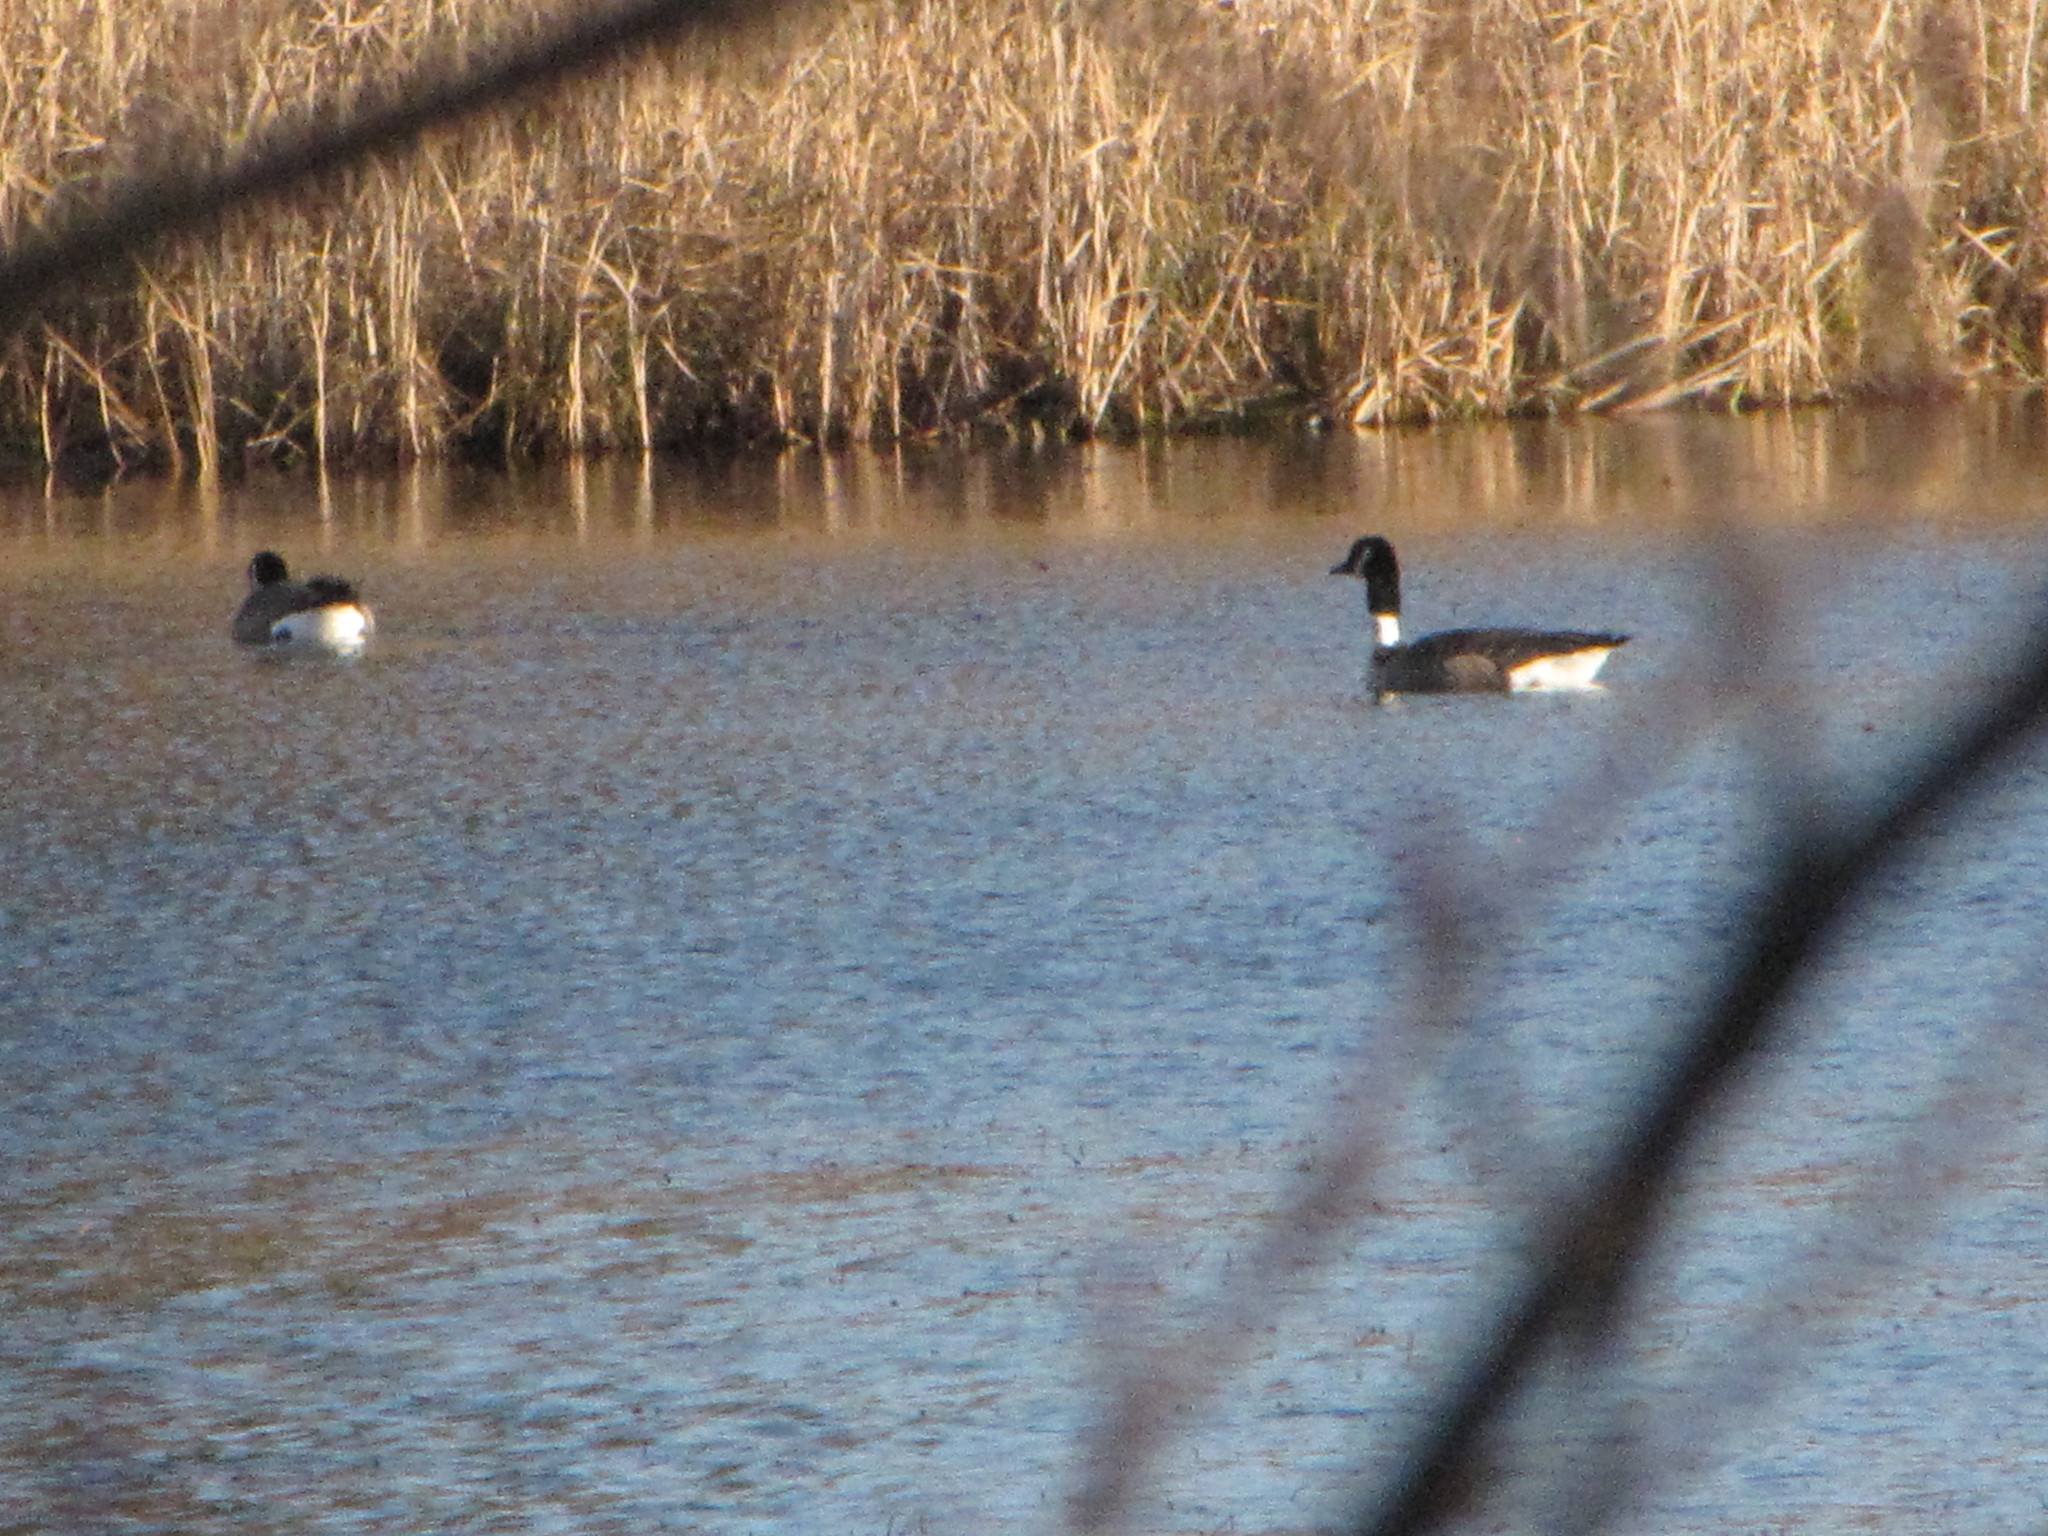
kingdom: Animalia
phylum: Chordata
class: Aves
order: Anseriformes
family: Anatidae
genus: Branta
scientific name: Branta canadensis
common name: Canada goose
